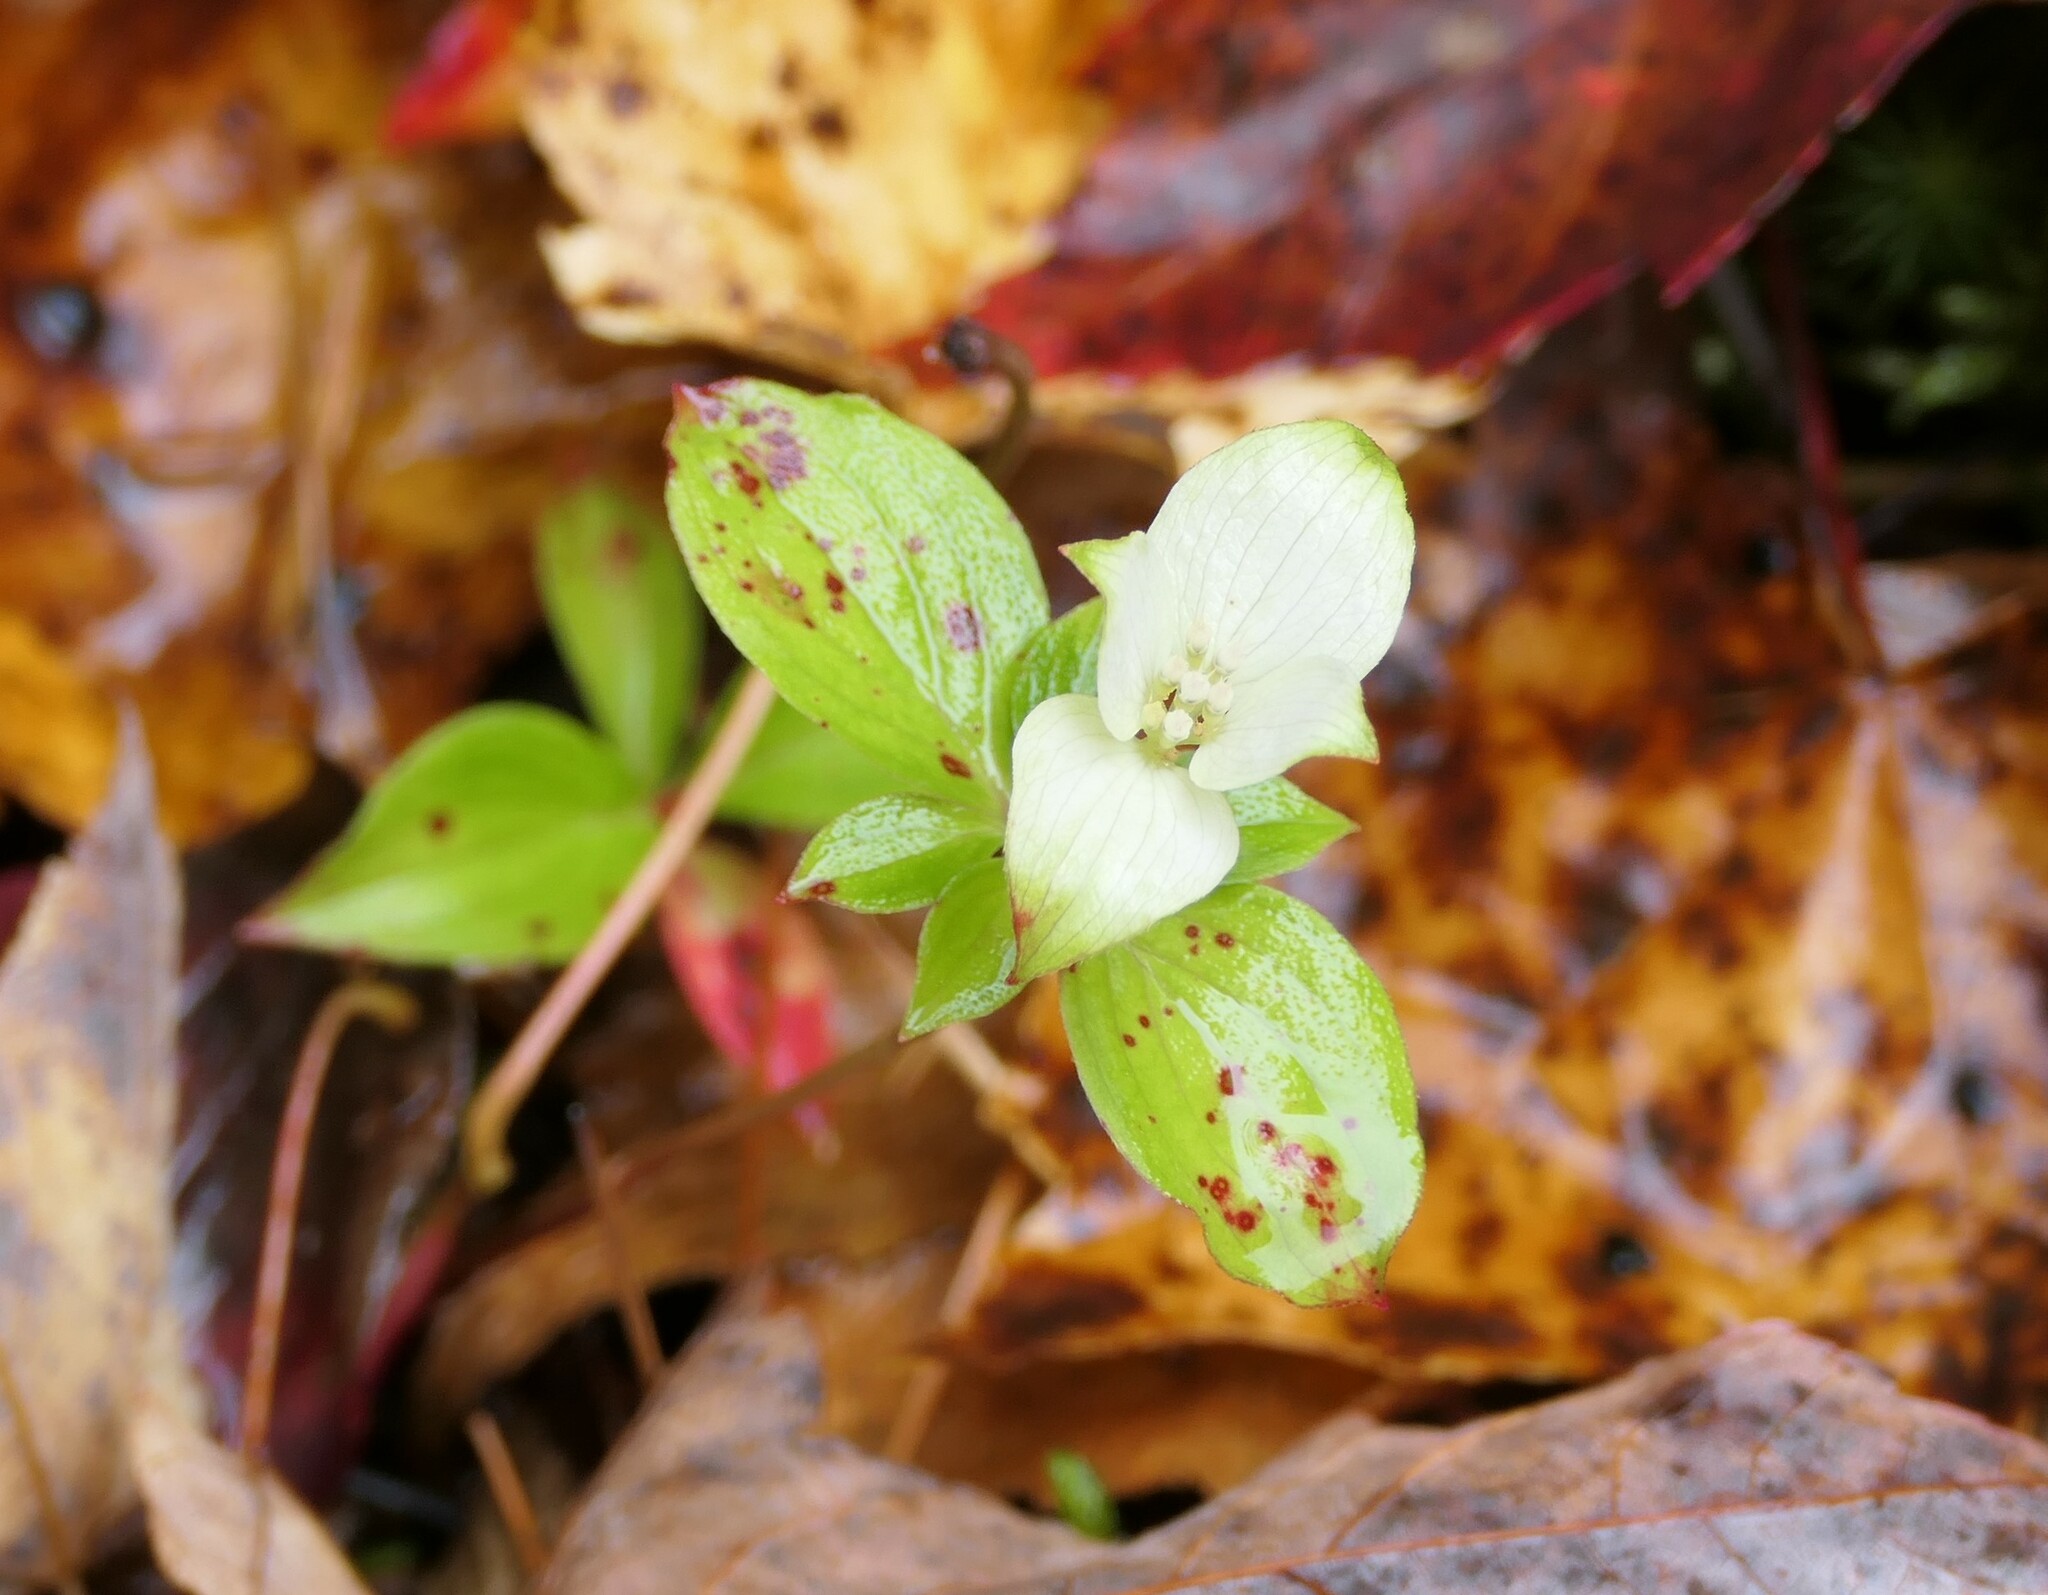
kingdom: Plantae
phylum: Tracheophyta
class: Magnoliopsida
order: Cornales
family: Cornaceae
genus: Cornus
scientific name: Cornus canadensis
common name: Creeping dogwood
